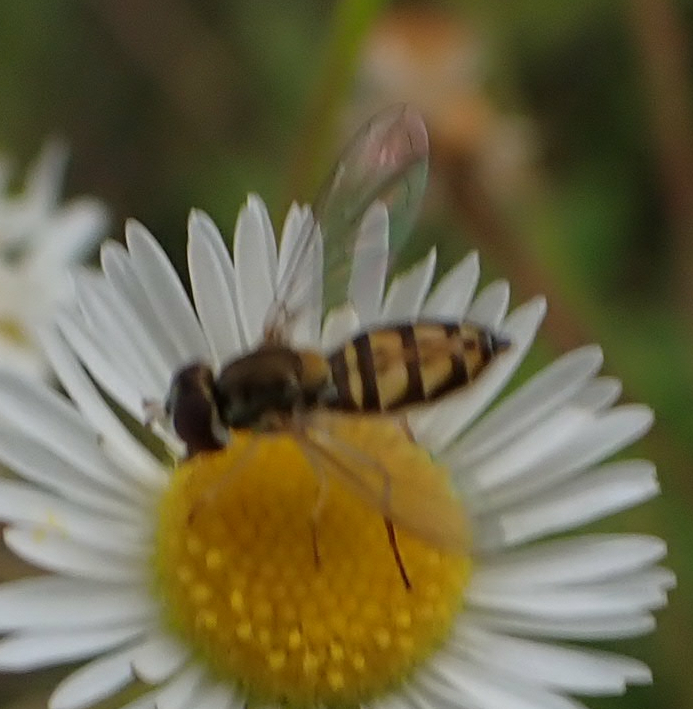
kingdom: Animalia
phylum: Arthropoda
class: Insecta
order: Diptera
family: Syrphidae
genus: Toxomerus
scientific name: Toxomerus marginatus
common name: Syrphid fly
